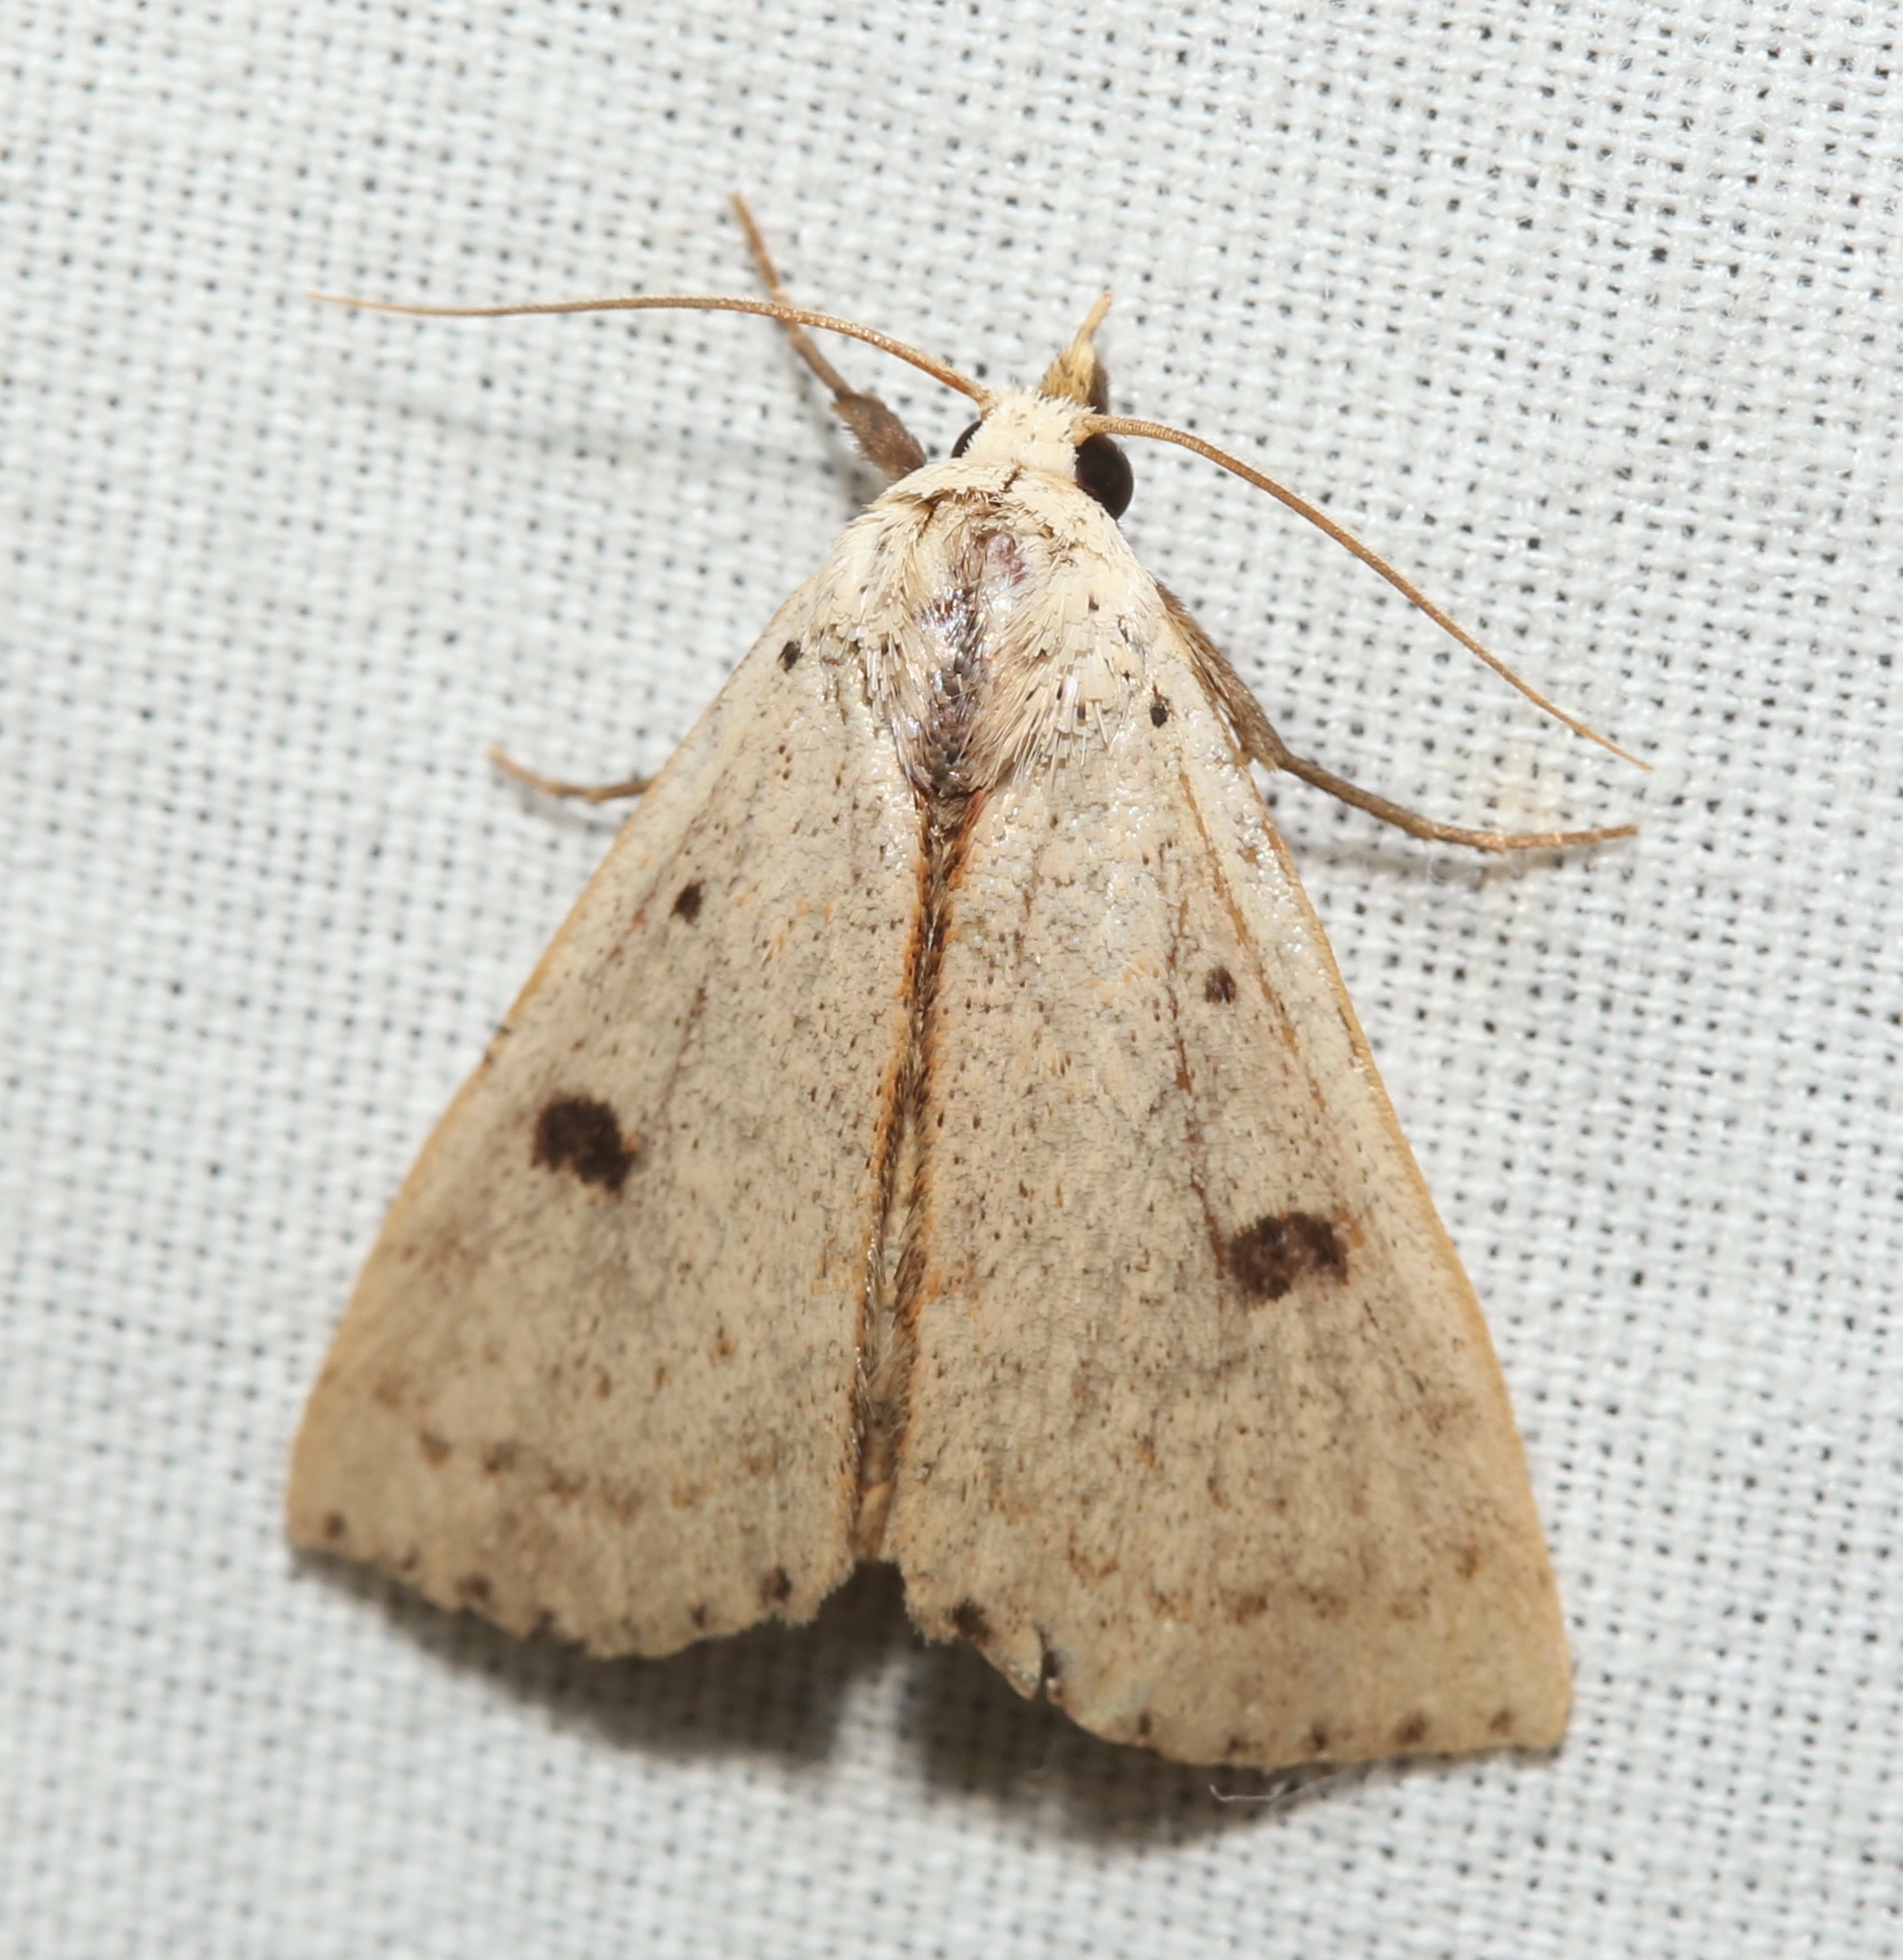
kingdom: Animalia
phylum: Arthropoda
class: Insecta
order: Lepidoptera
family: Erebidae
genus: Scolecocampa
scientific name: Scolecocampa liburna
